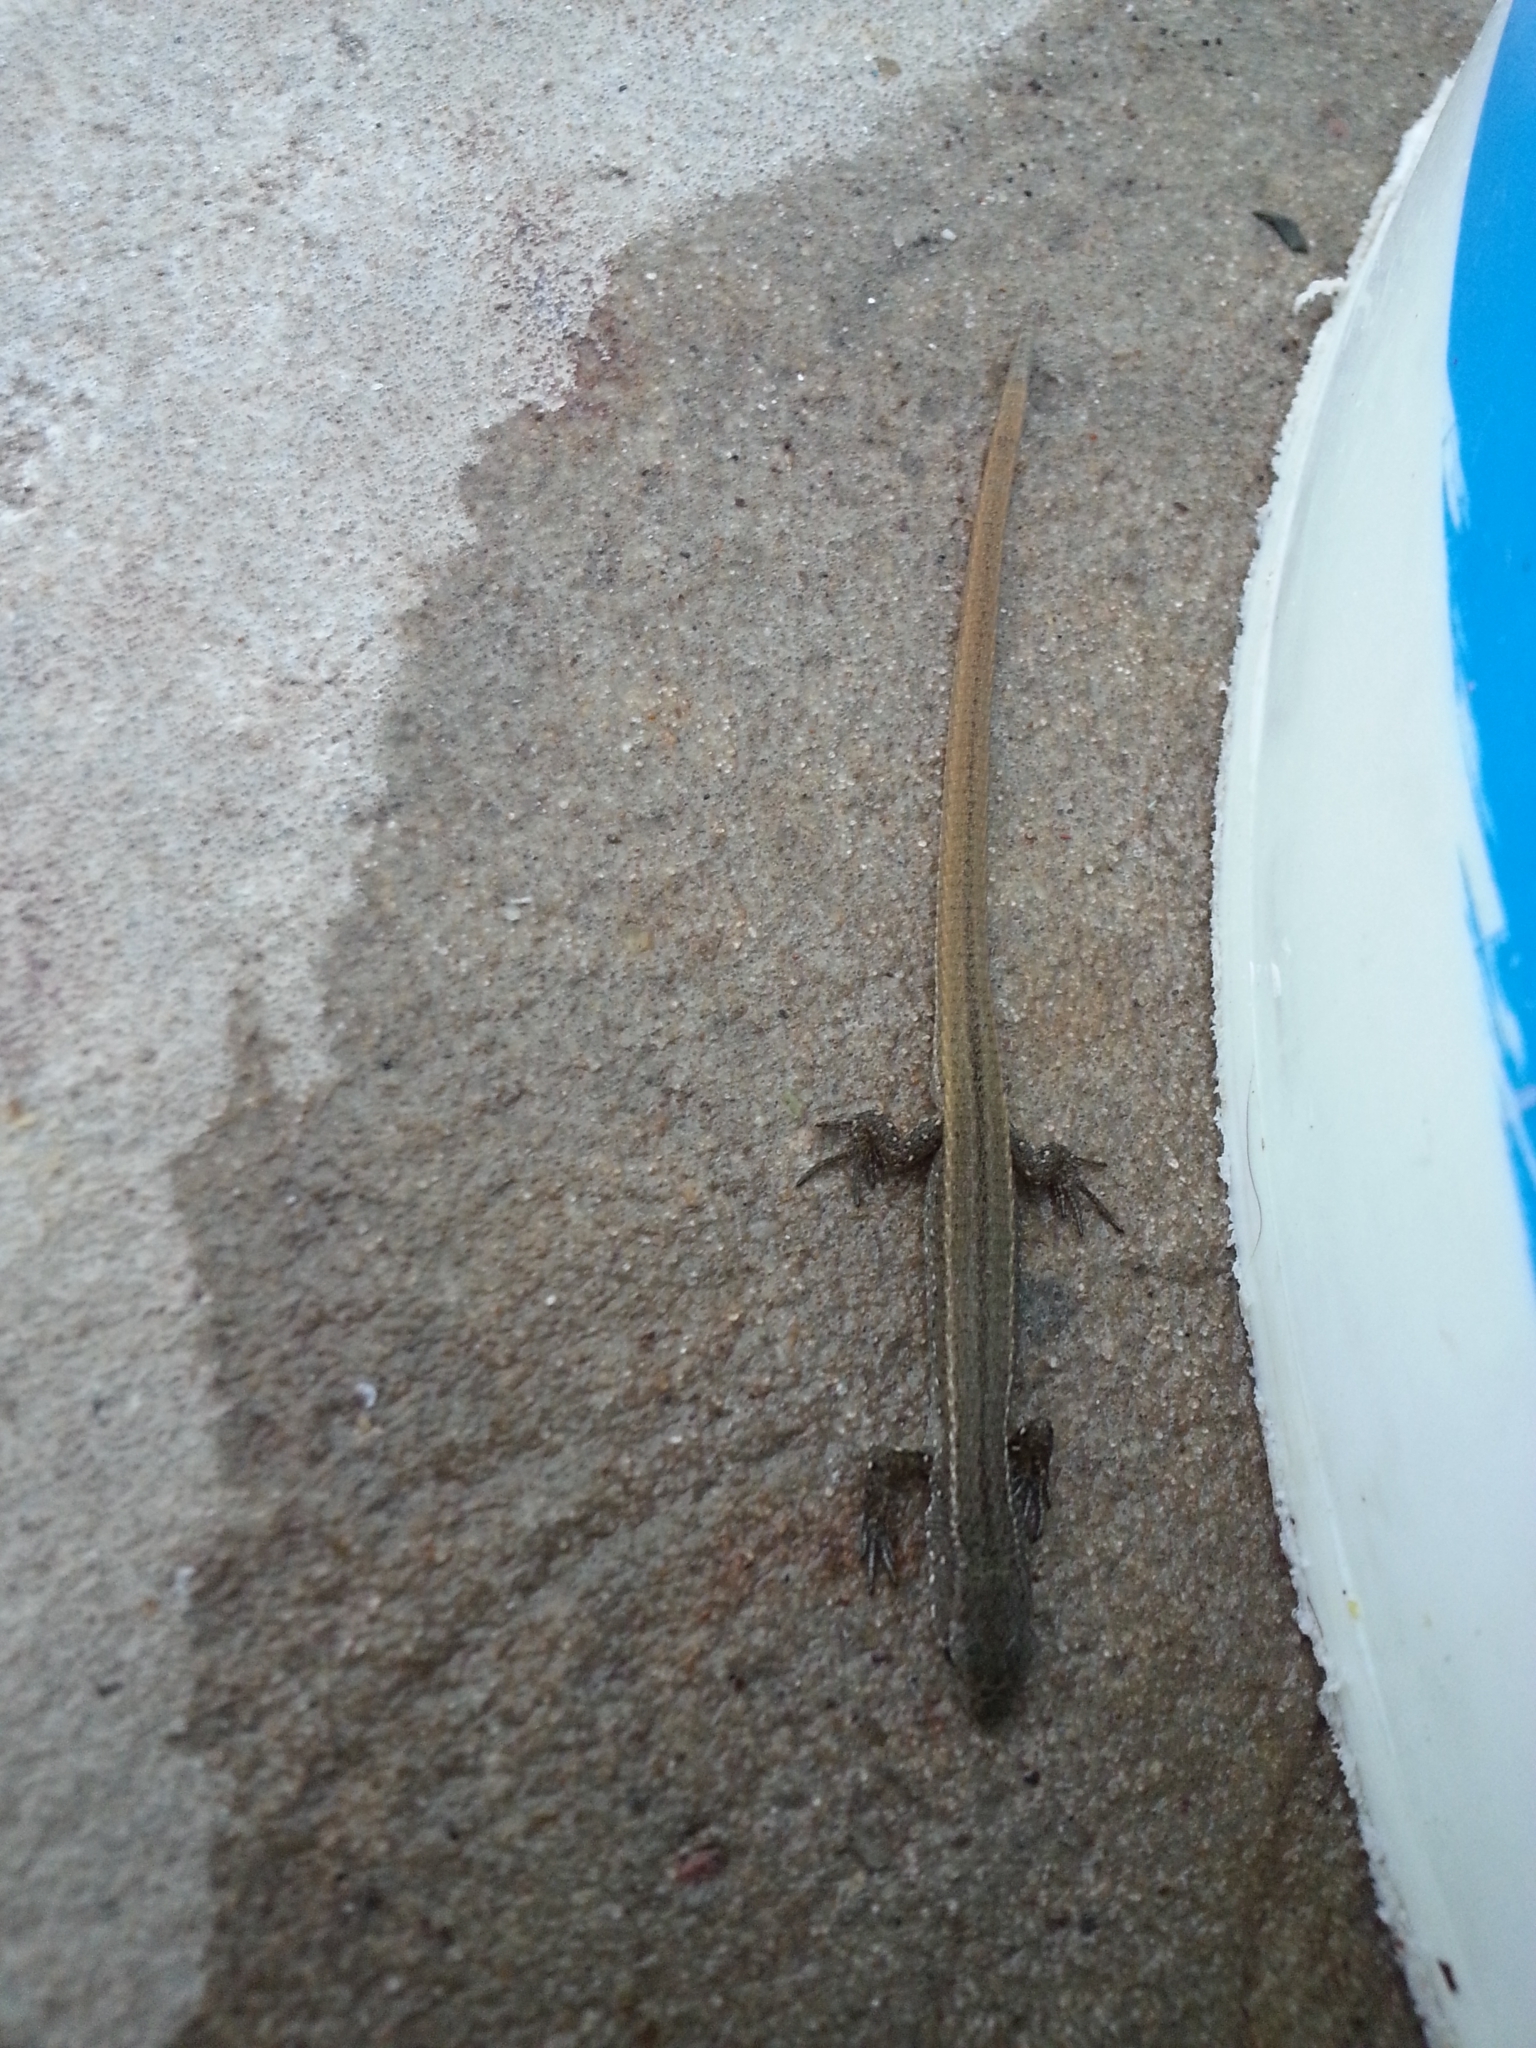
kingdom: Animalia
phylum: Chordata
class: Squamata
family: Gymnophthalmidae
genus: Cercosaura
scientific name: Cercosaura schreibersii
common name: Schreibers' many-fingered teiid
